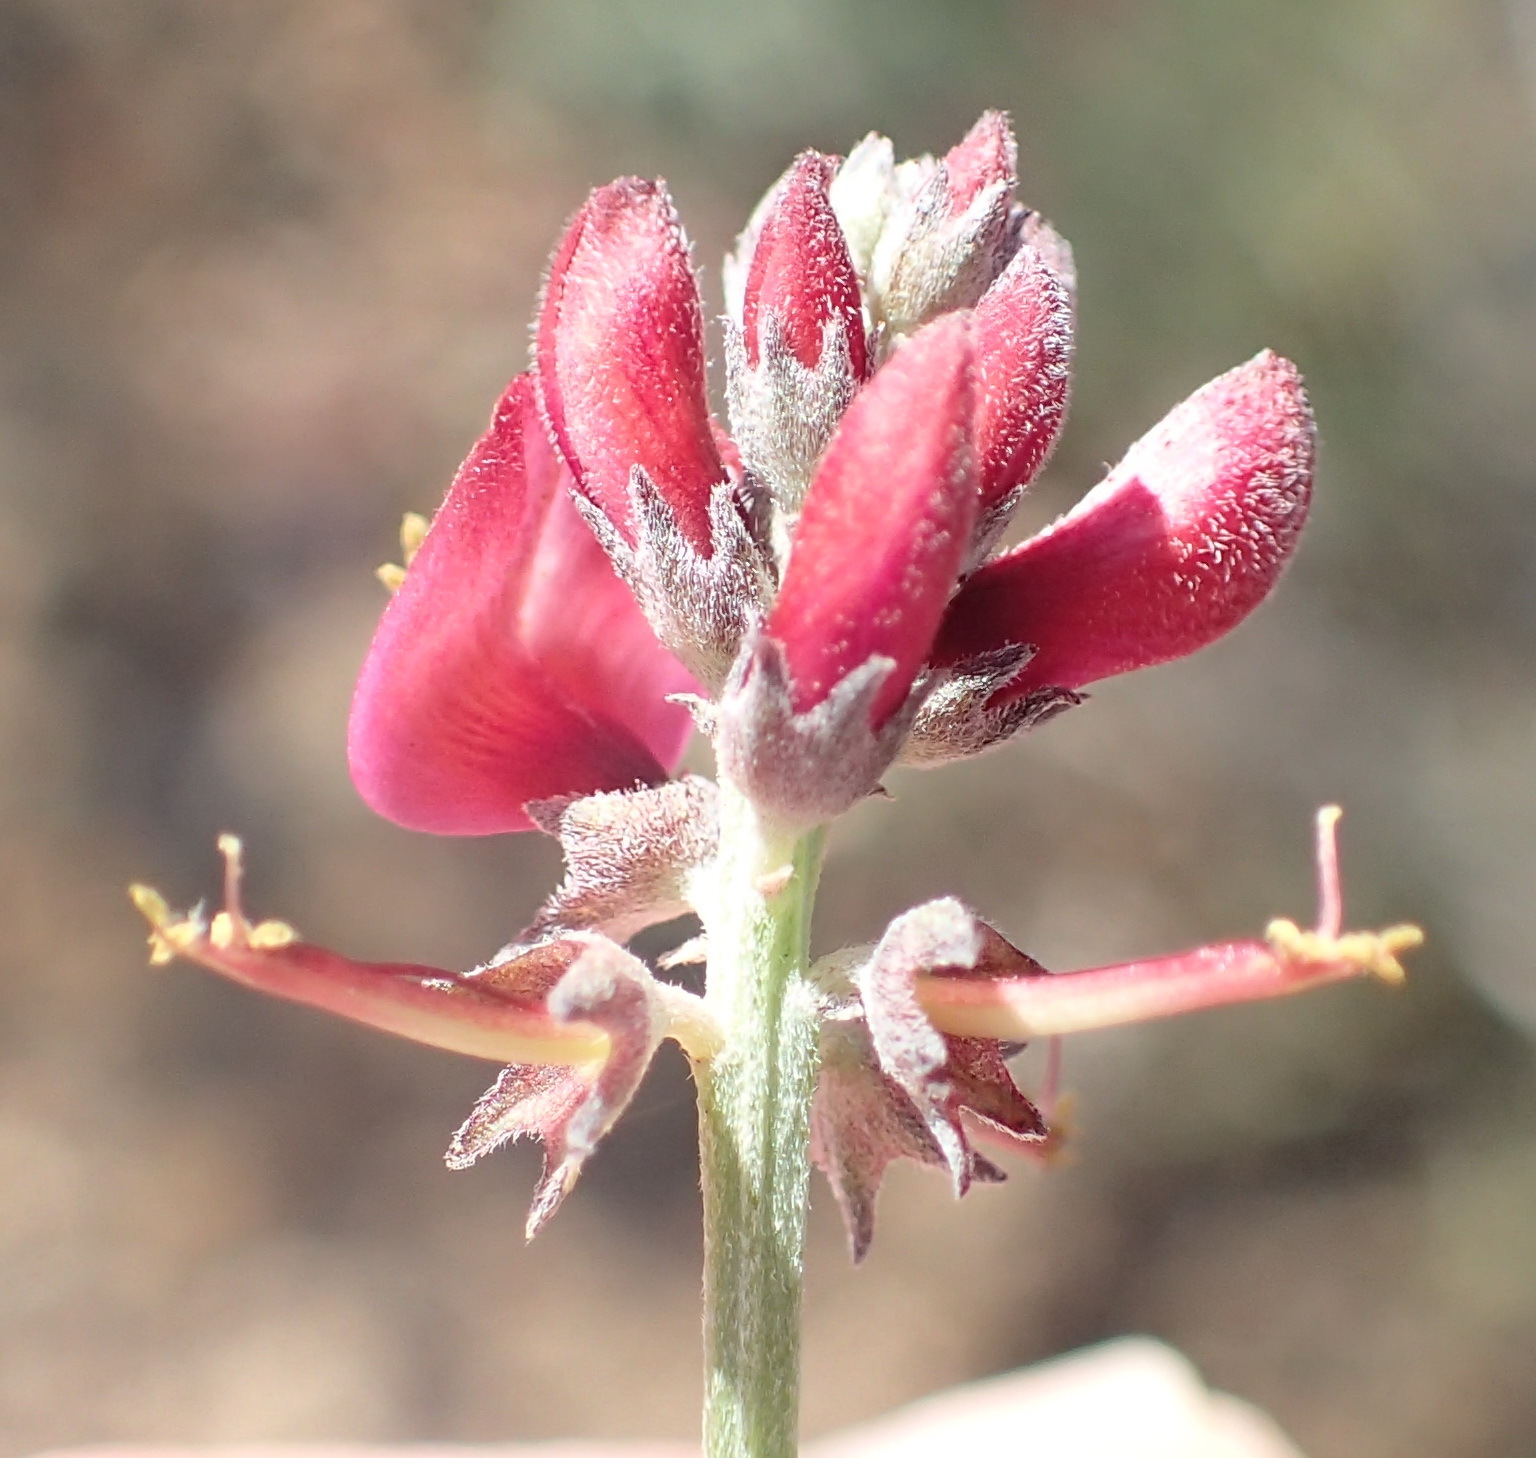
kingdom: Plantae
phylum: Tracheophyta
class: Magnoliopsida
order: Fabales
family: Fabaceae
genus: Indigofera
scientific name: Indigofera complicata
